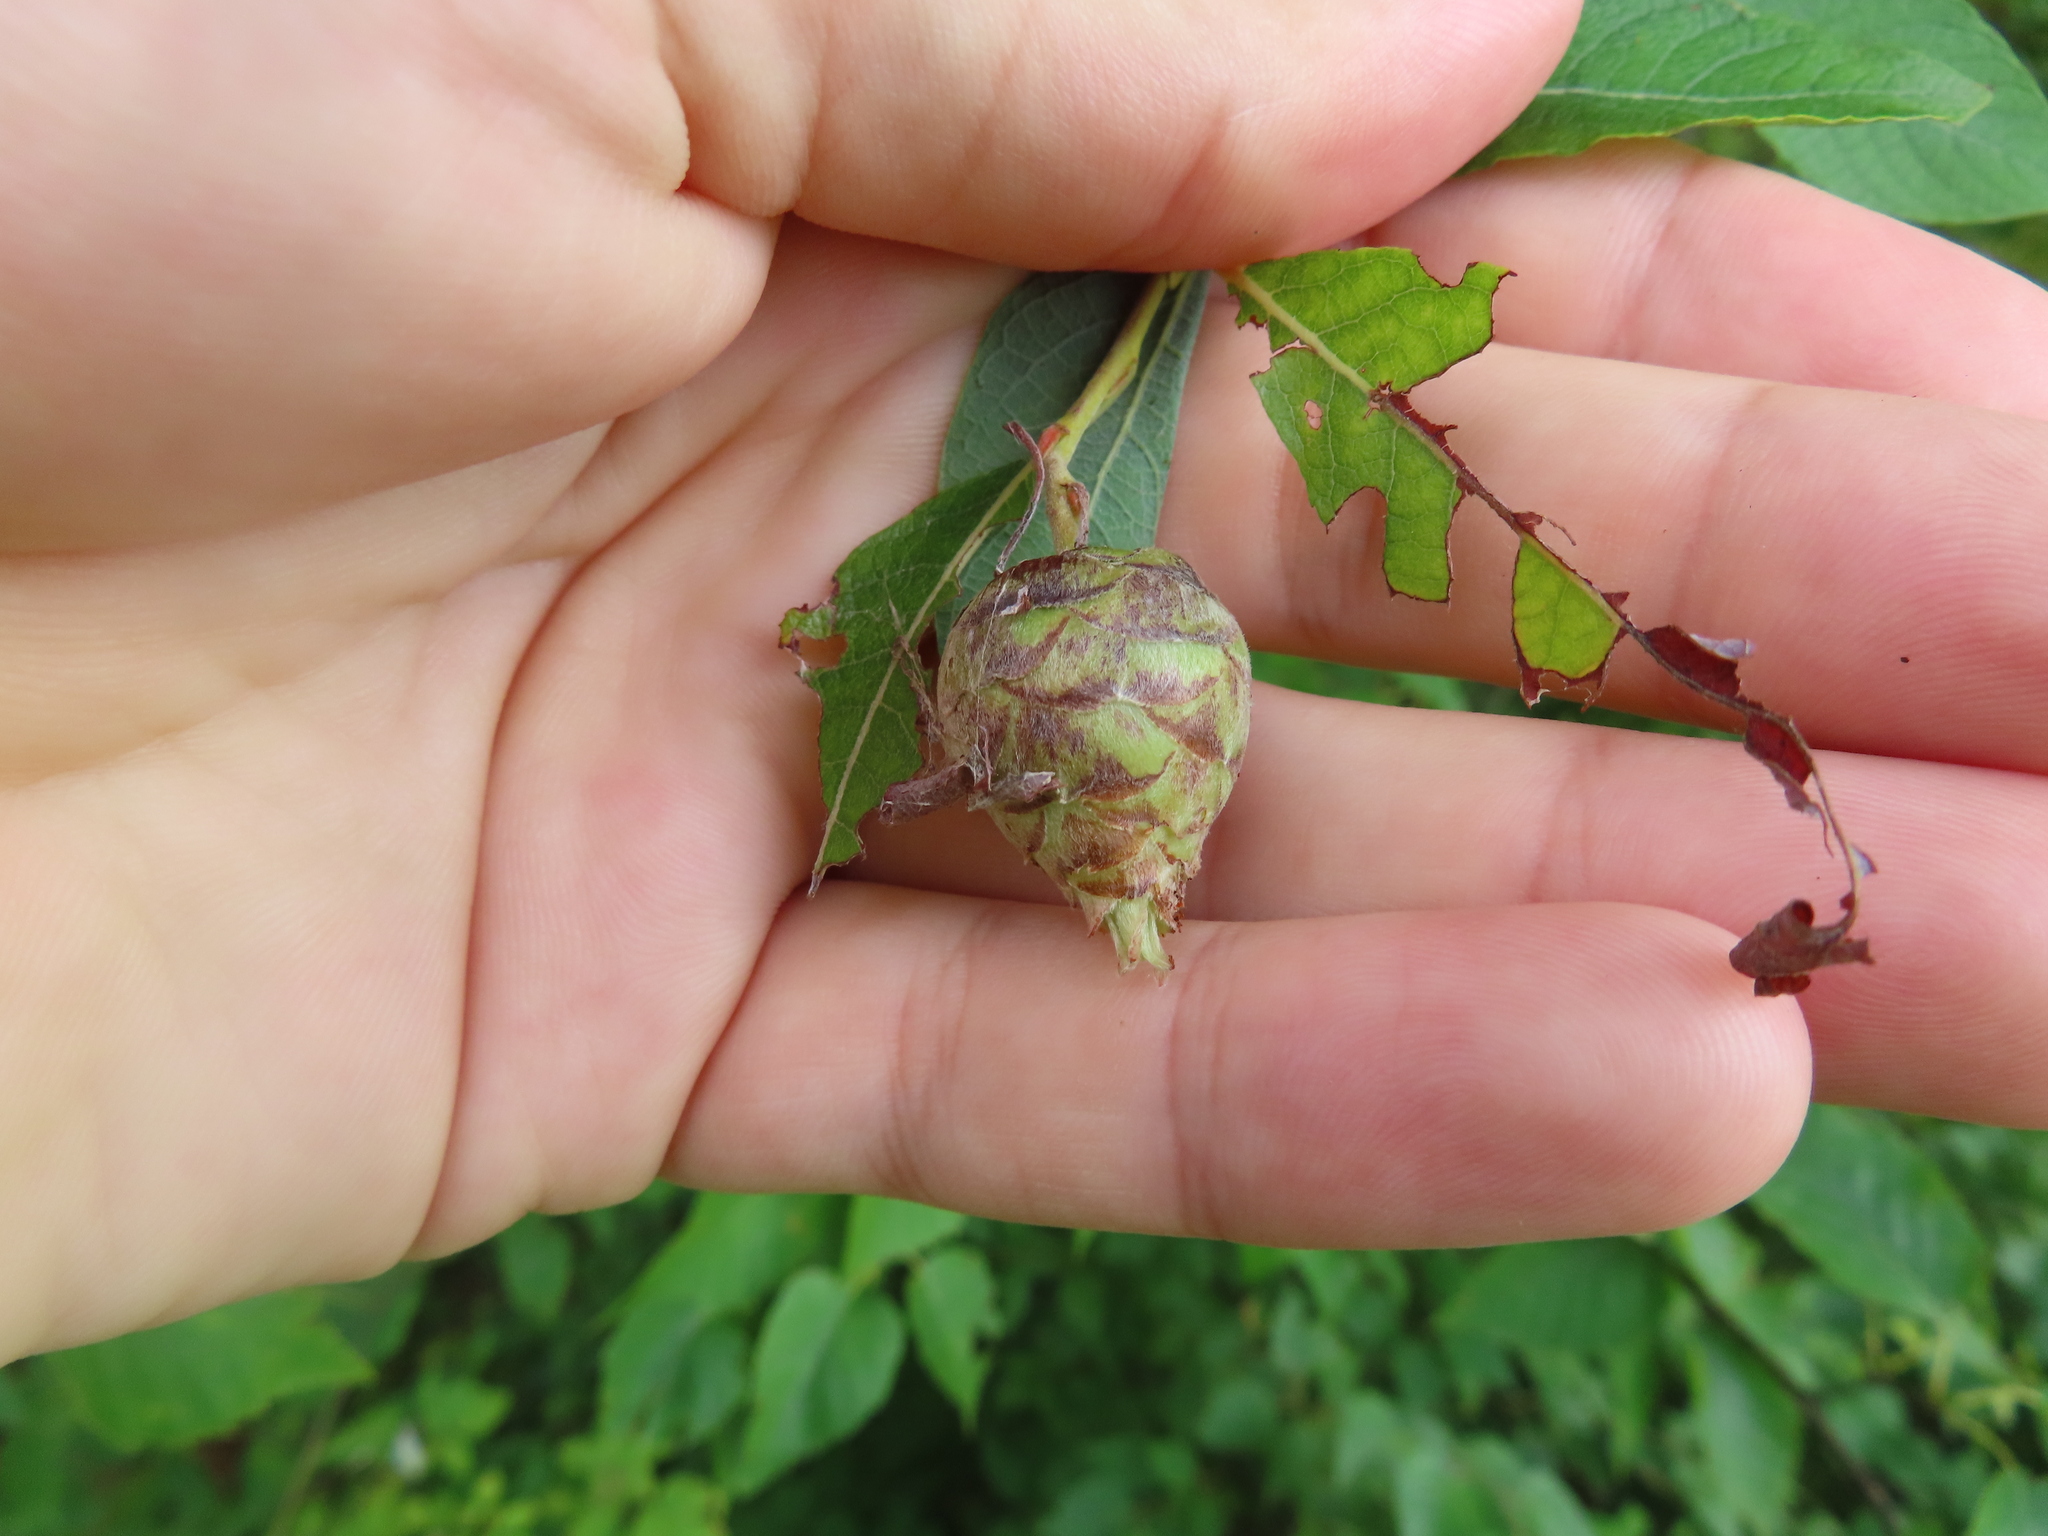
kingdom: Animalia
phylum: Arthropoda
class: Insecta
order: Diptera
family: Cecidomyiidae
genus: Rabdophaga
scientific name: Rabdophaga strobiloides
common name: Willow pinecone gall midge
